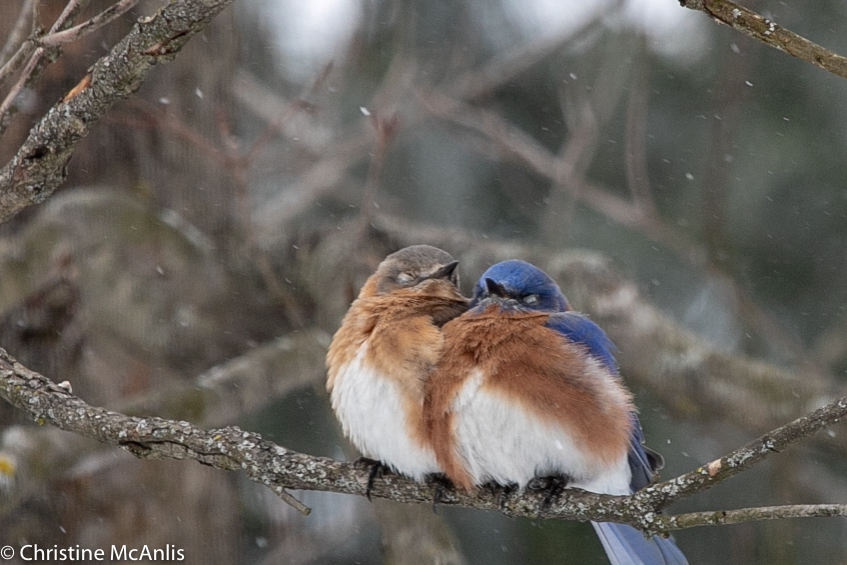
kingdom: Animalia
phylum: Chordata
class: Aves
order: Passeriformes
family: Turdidae
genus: Sialia
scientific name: Sialia sialis
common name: Eastern bluebird
